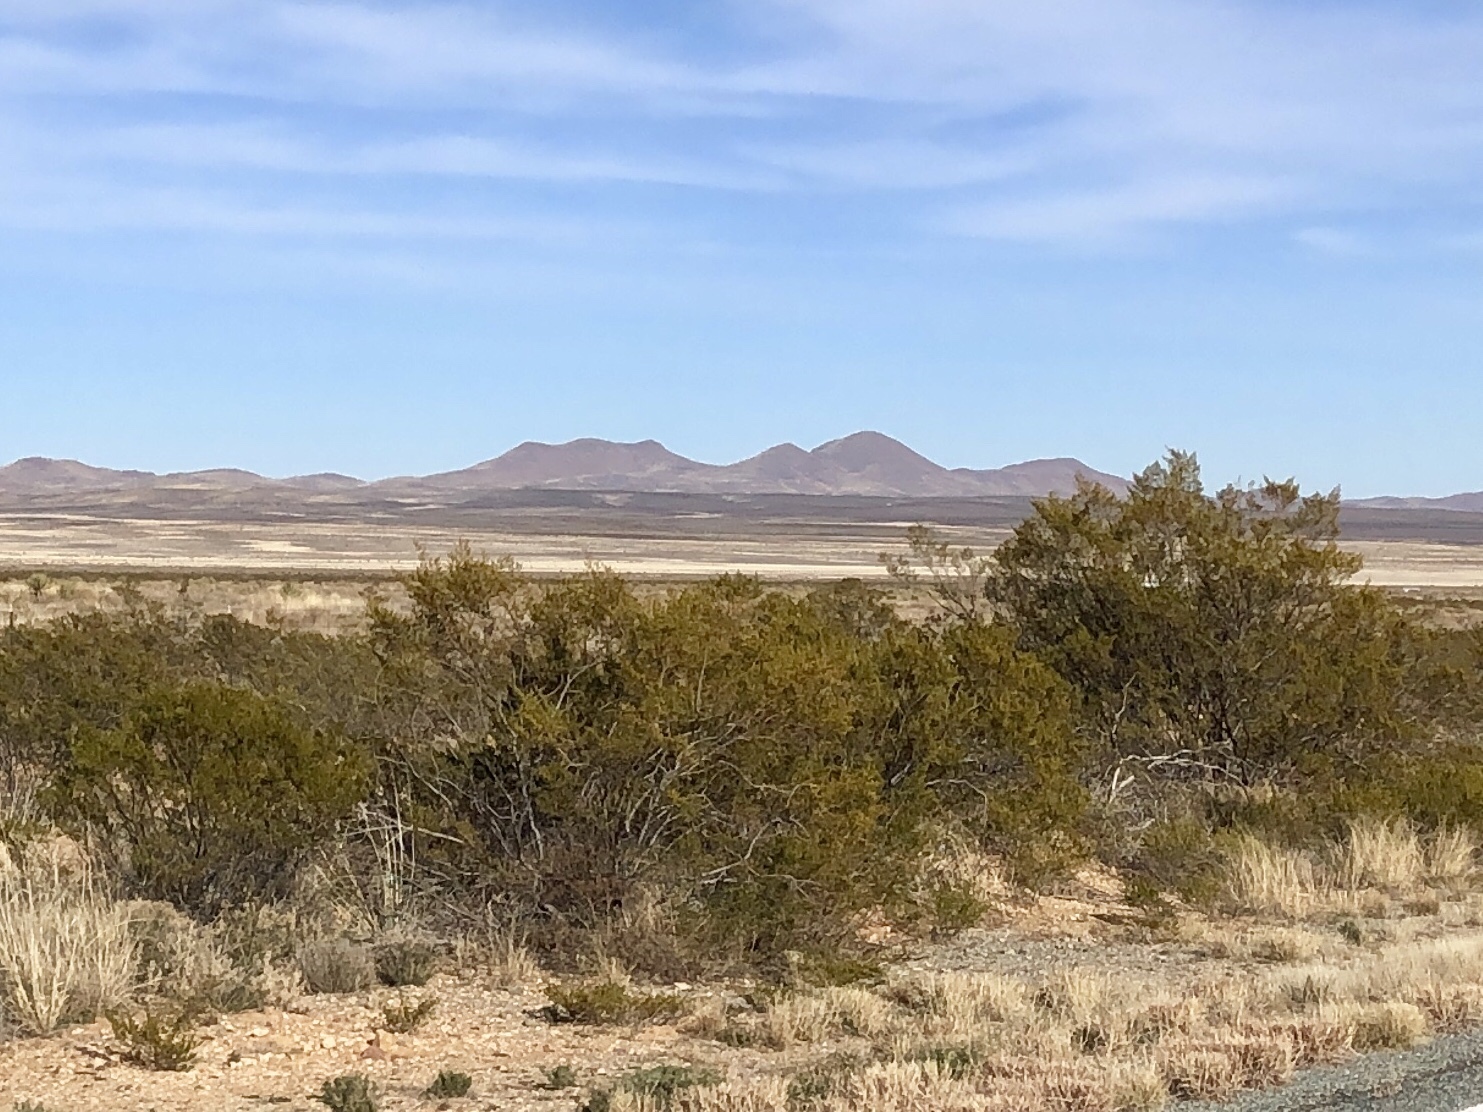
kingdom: Plantae
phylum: Tracheophyta
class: Magnoliopsida
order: Zygophyllales
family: Zygophyllaceae
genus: Larrea
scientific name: Larrea tridentata
